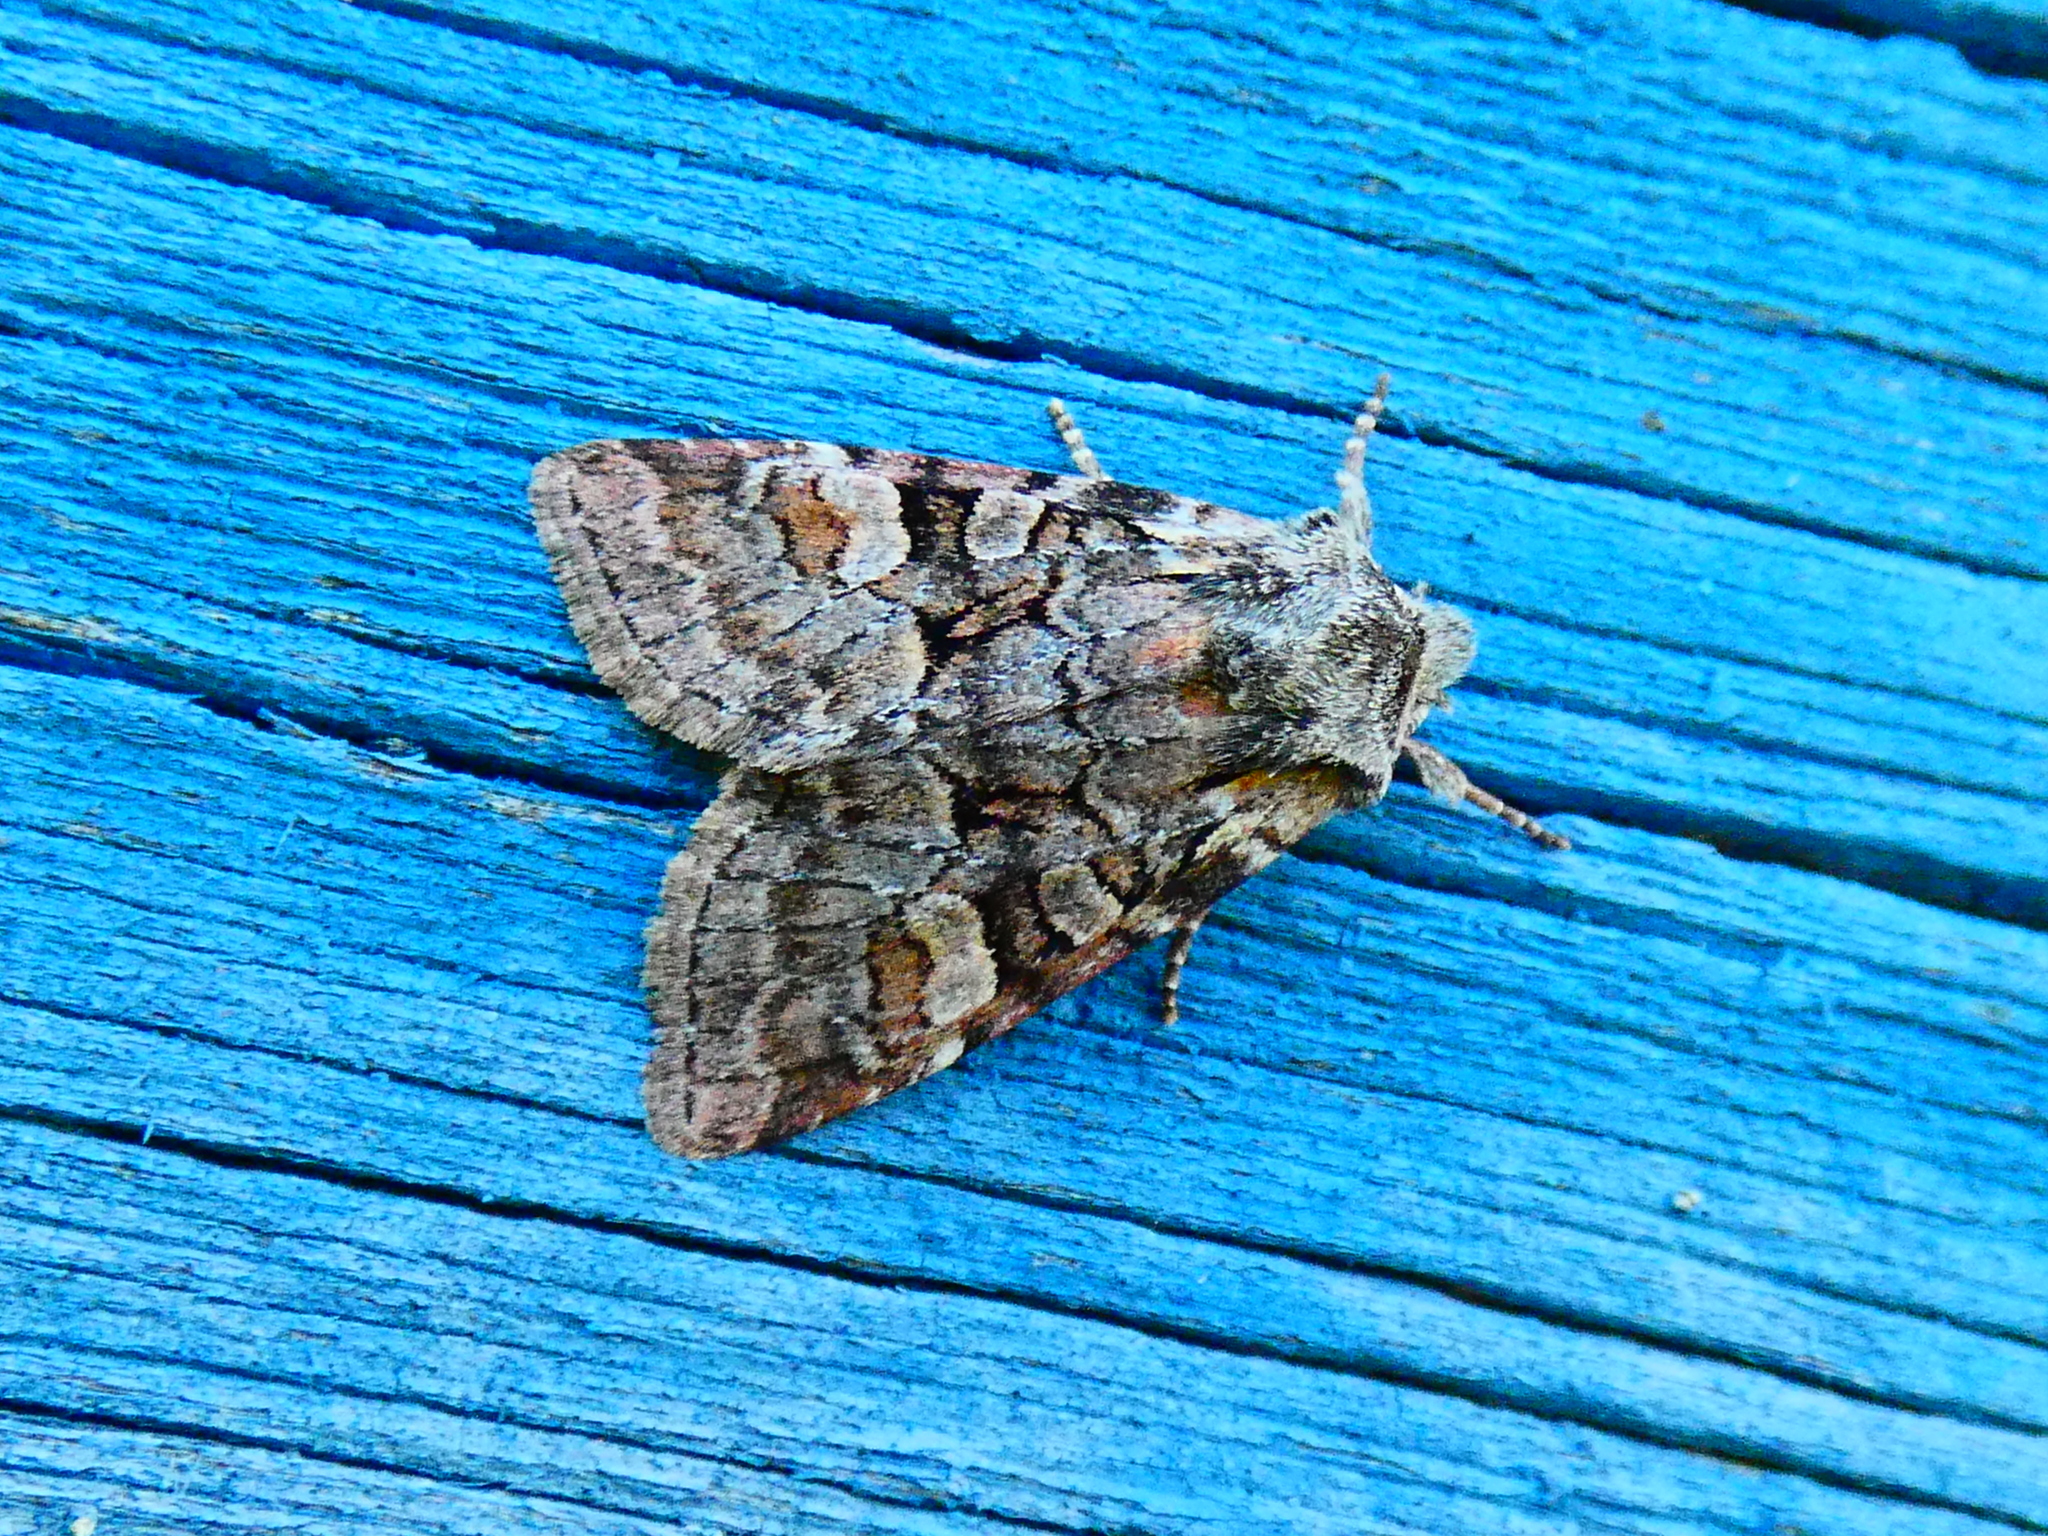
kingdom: Animalia
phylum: Arthropoda
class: Insecta
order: Lepidoptera
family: Noctuidae
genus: Brachylomia
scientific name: Brachylomia viminalis
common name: Minor shoulder-knot
